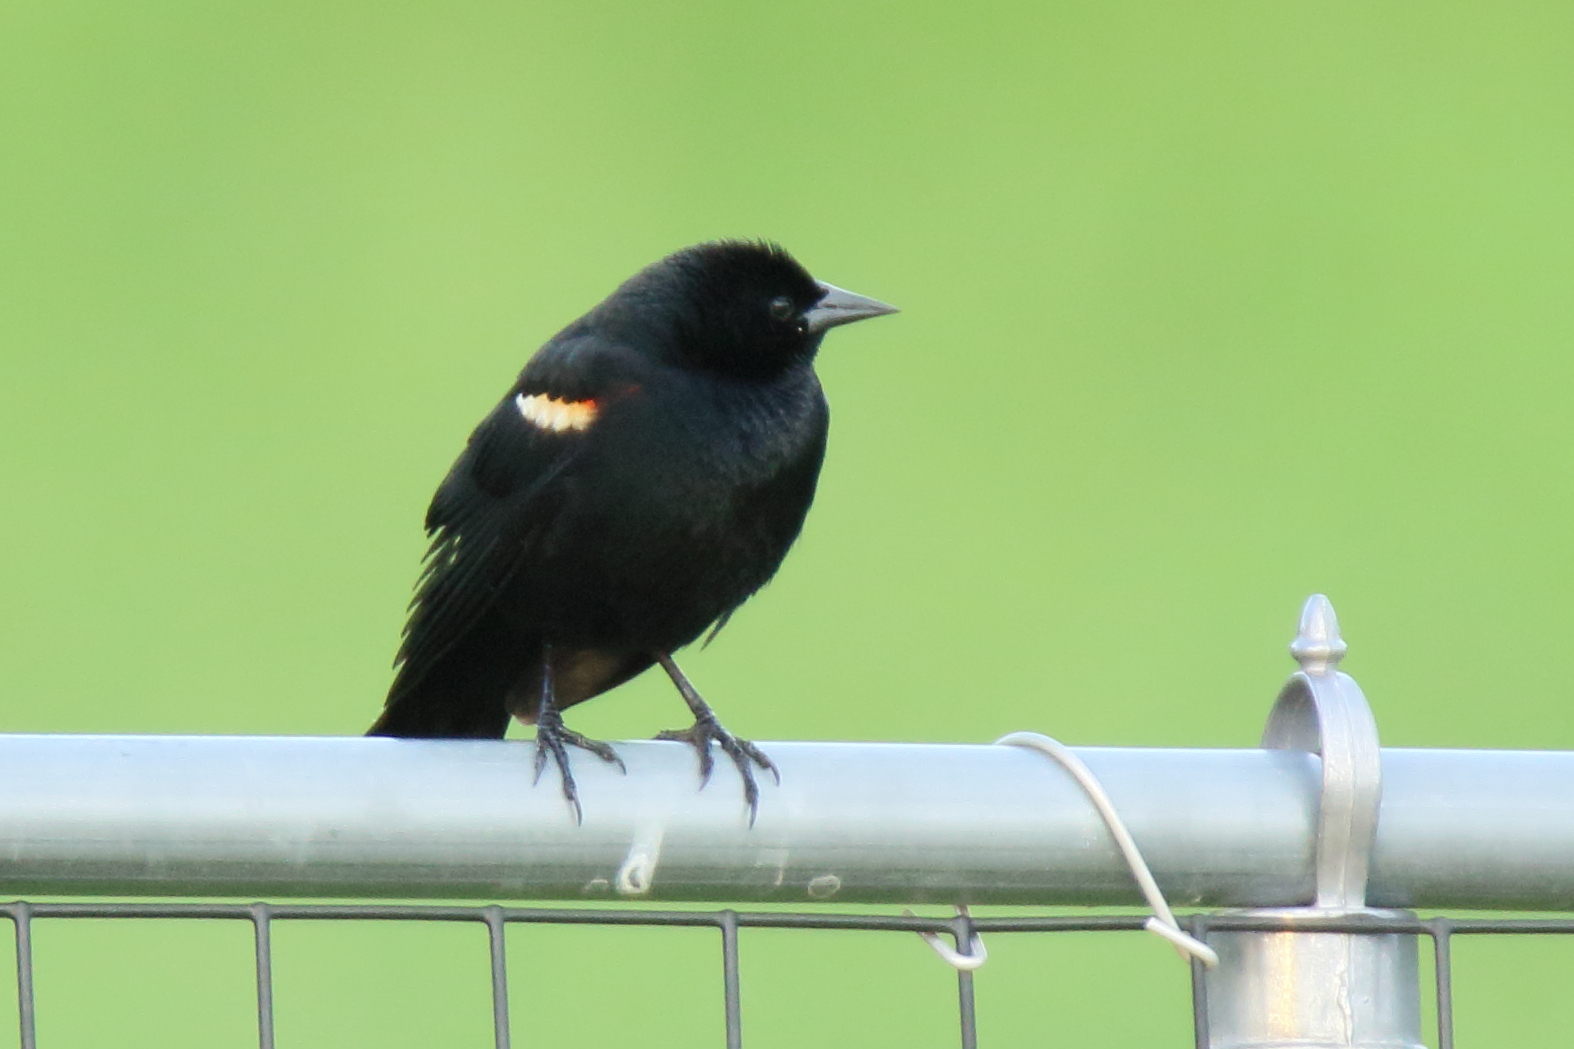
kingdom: Animalia
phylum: Chordata
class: Aves
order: Passeriformes
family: Icteridae
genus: Agelaius
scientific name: Agelaius phoeniceus
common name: Red-winged blackbird
